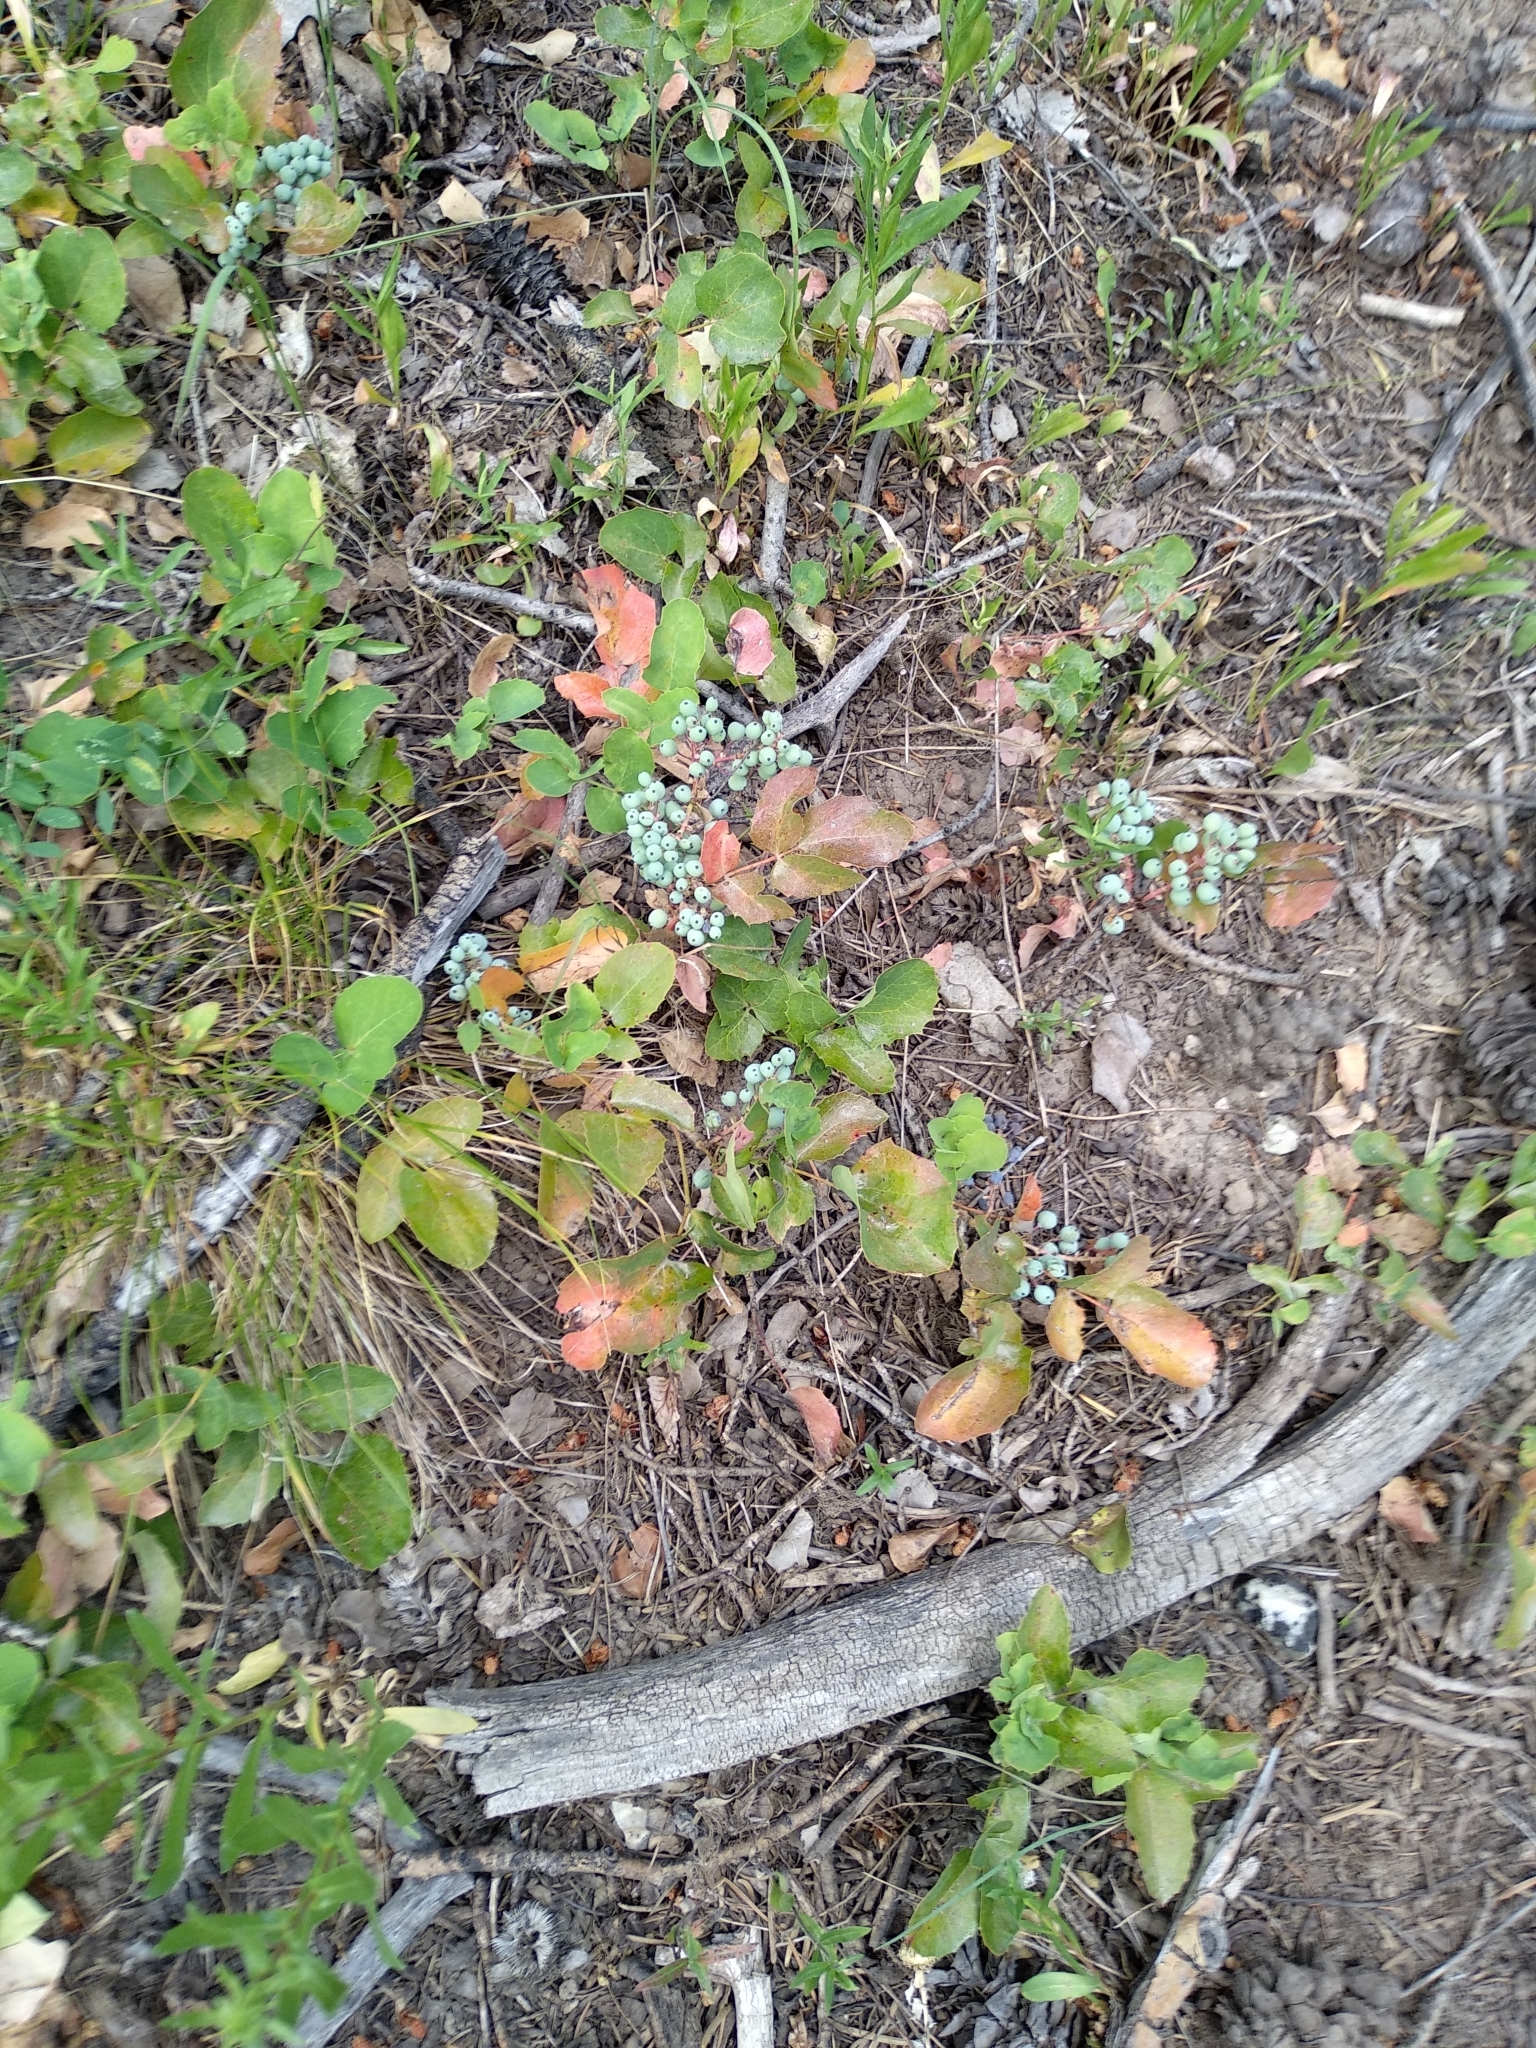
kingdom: Plantae
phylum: Tracheophyta
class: Magnoliopsida
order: Ranunculales
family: Berberidaceae
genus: Mahonia
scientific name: Mahonia repens
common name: Creeping oregon-grape
